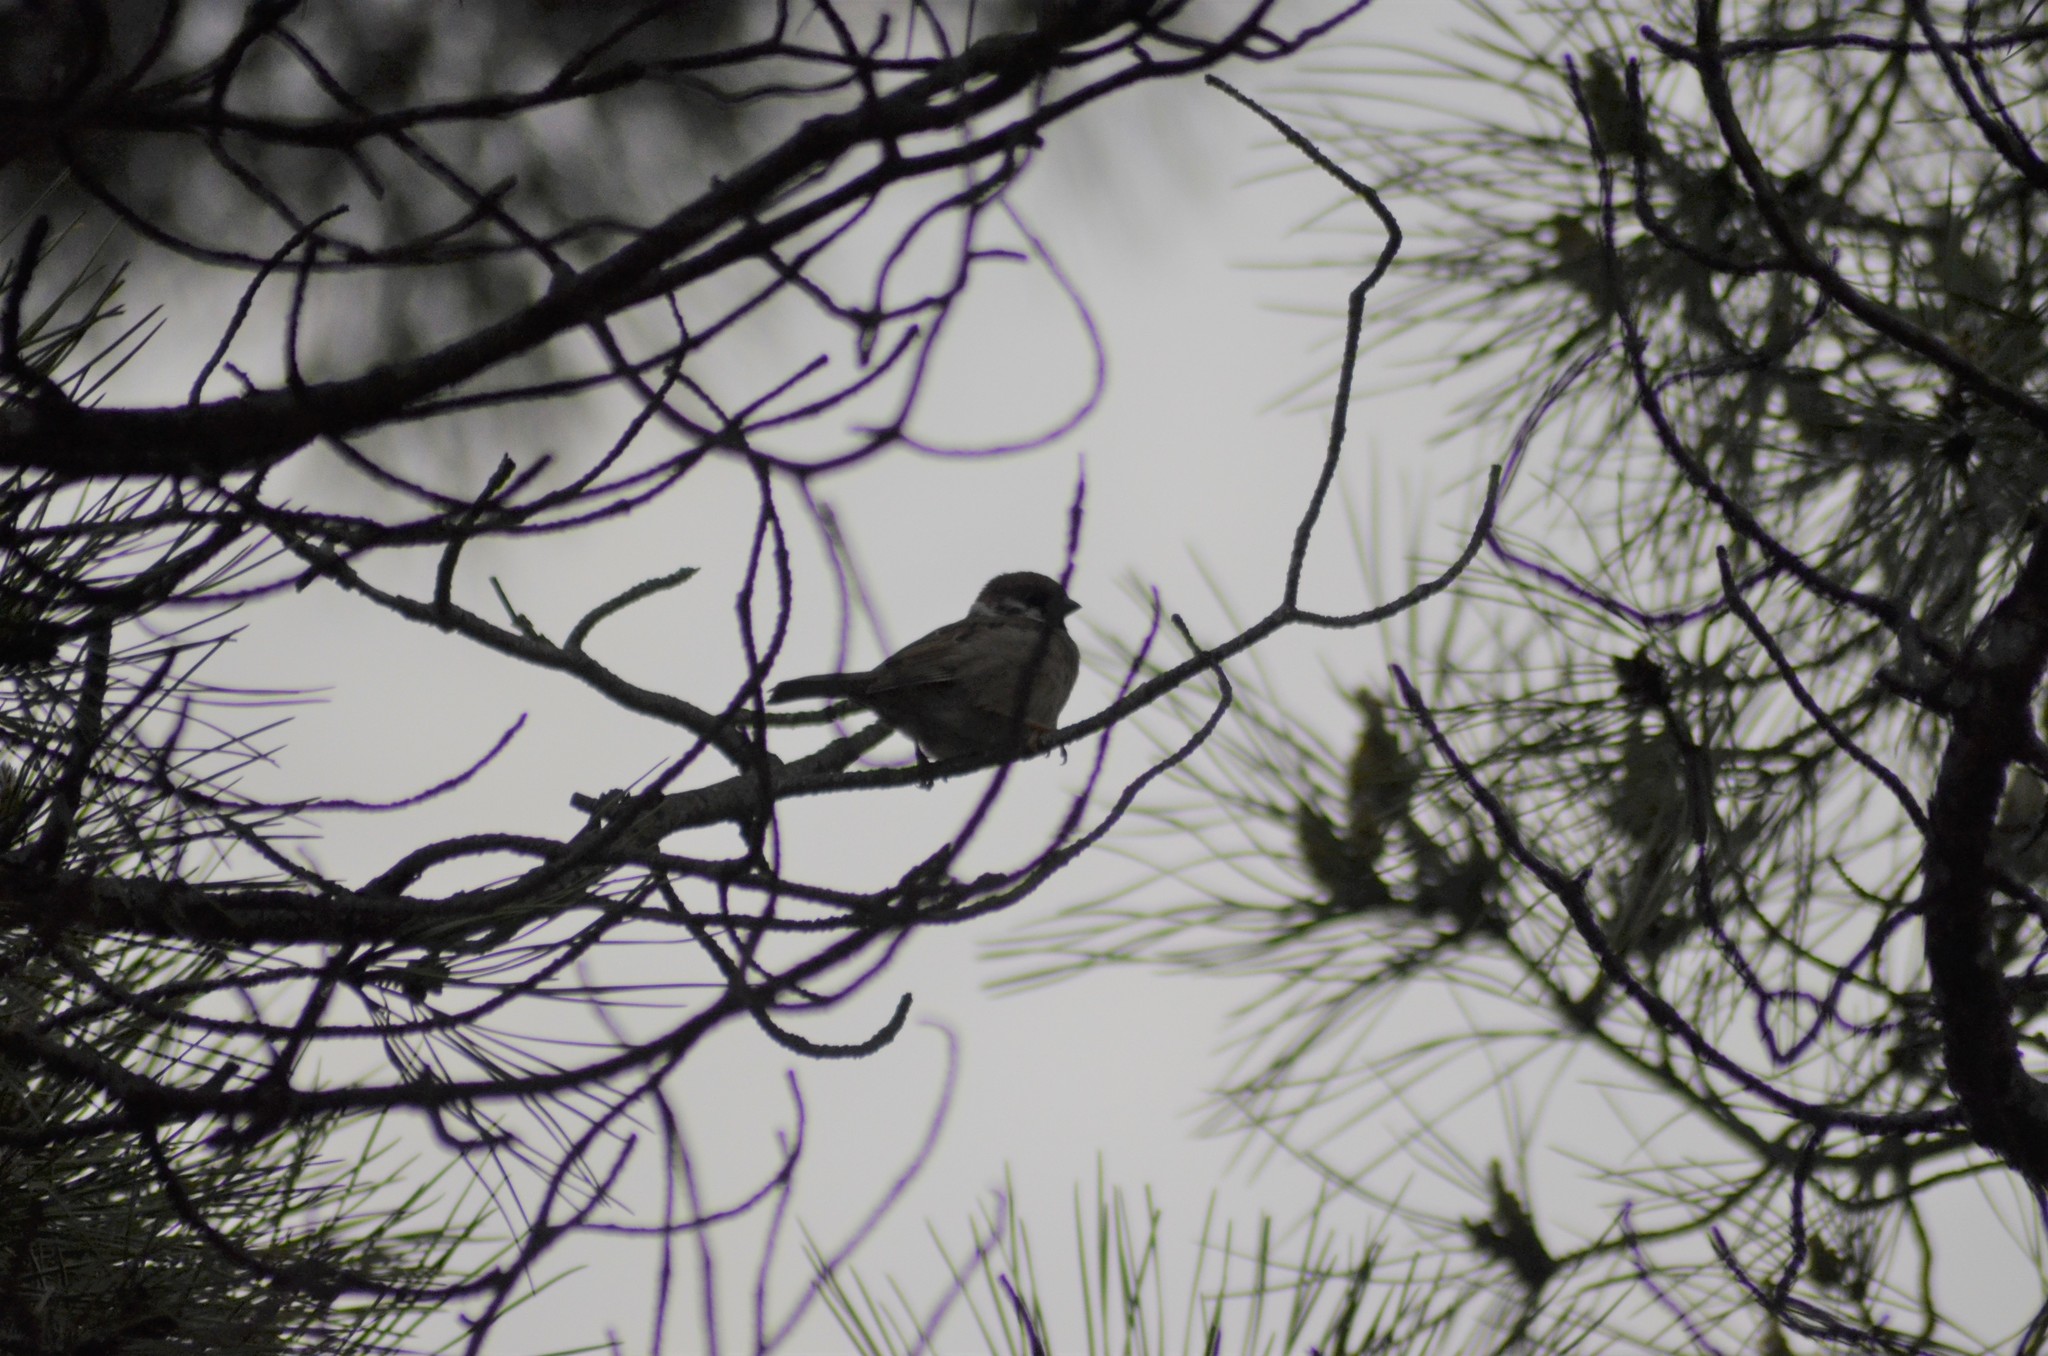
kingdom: Animalia
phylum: Chordata
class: Aves
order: Passeriformes
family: Passeridae
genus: Passer
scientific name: Passer montanus
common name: Eurasian tree sparrow
